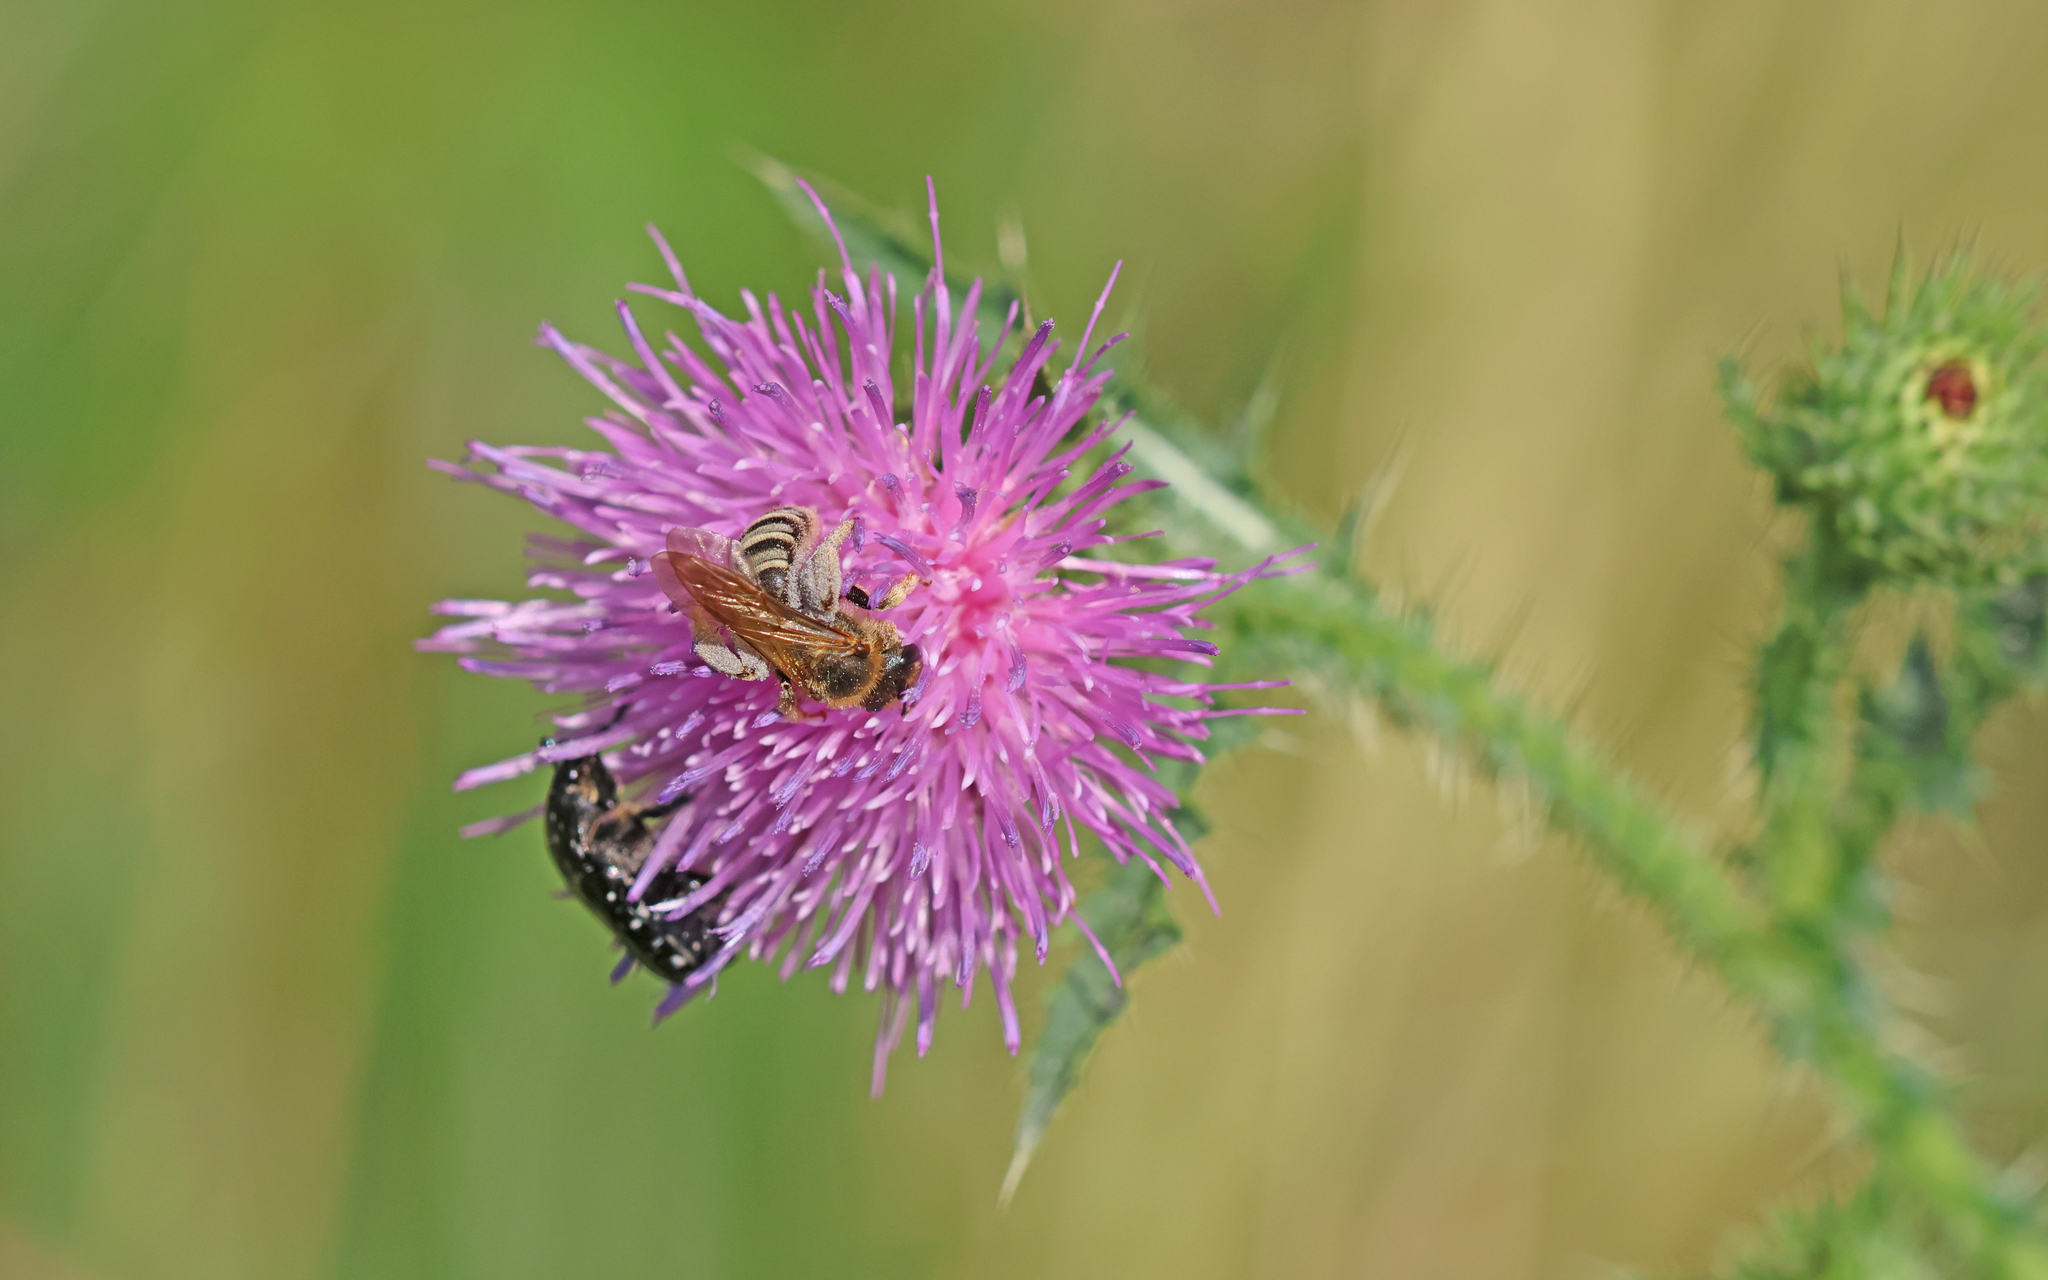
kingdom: Animalia
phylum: Arthropoda
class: Insecta
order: Hymenoptera
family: Halictidae
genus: Halictus
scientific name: Halictus scabiosae
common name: Great banded furrow bee
